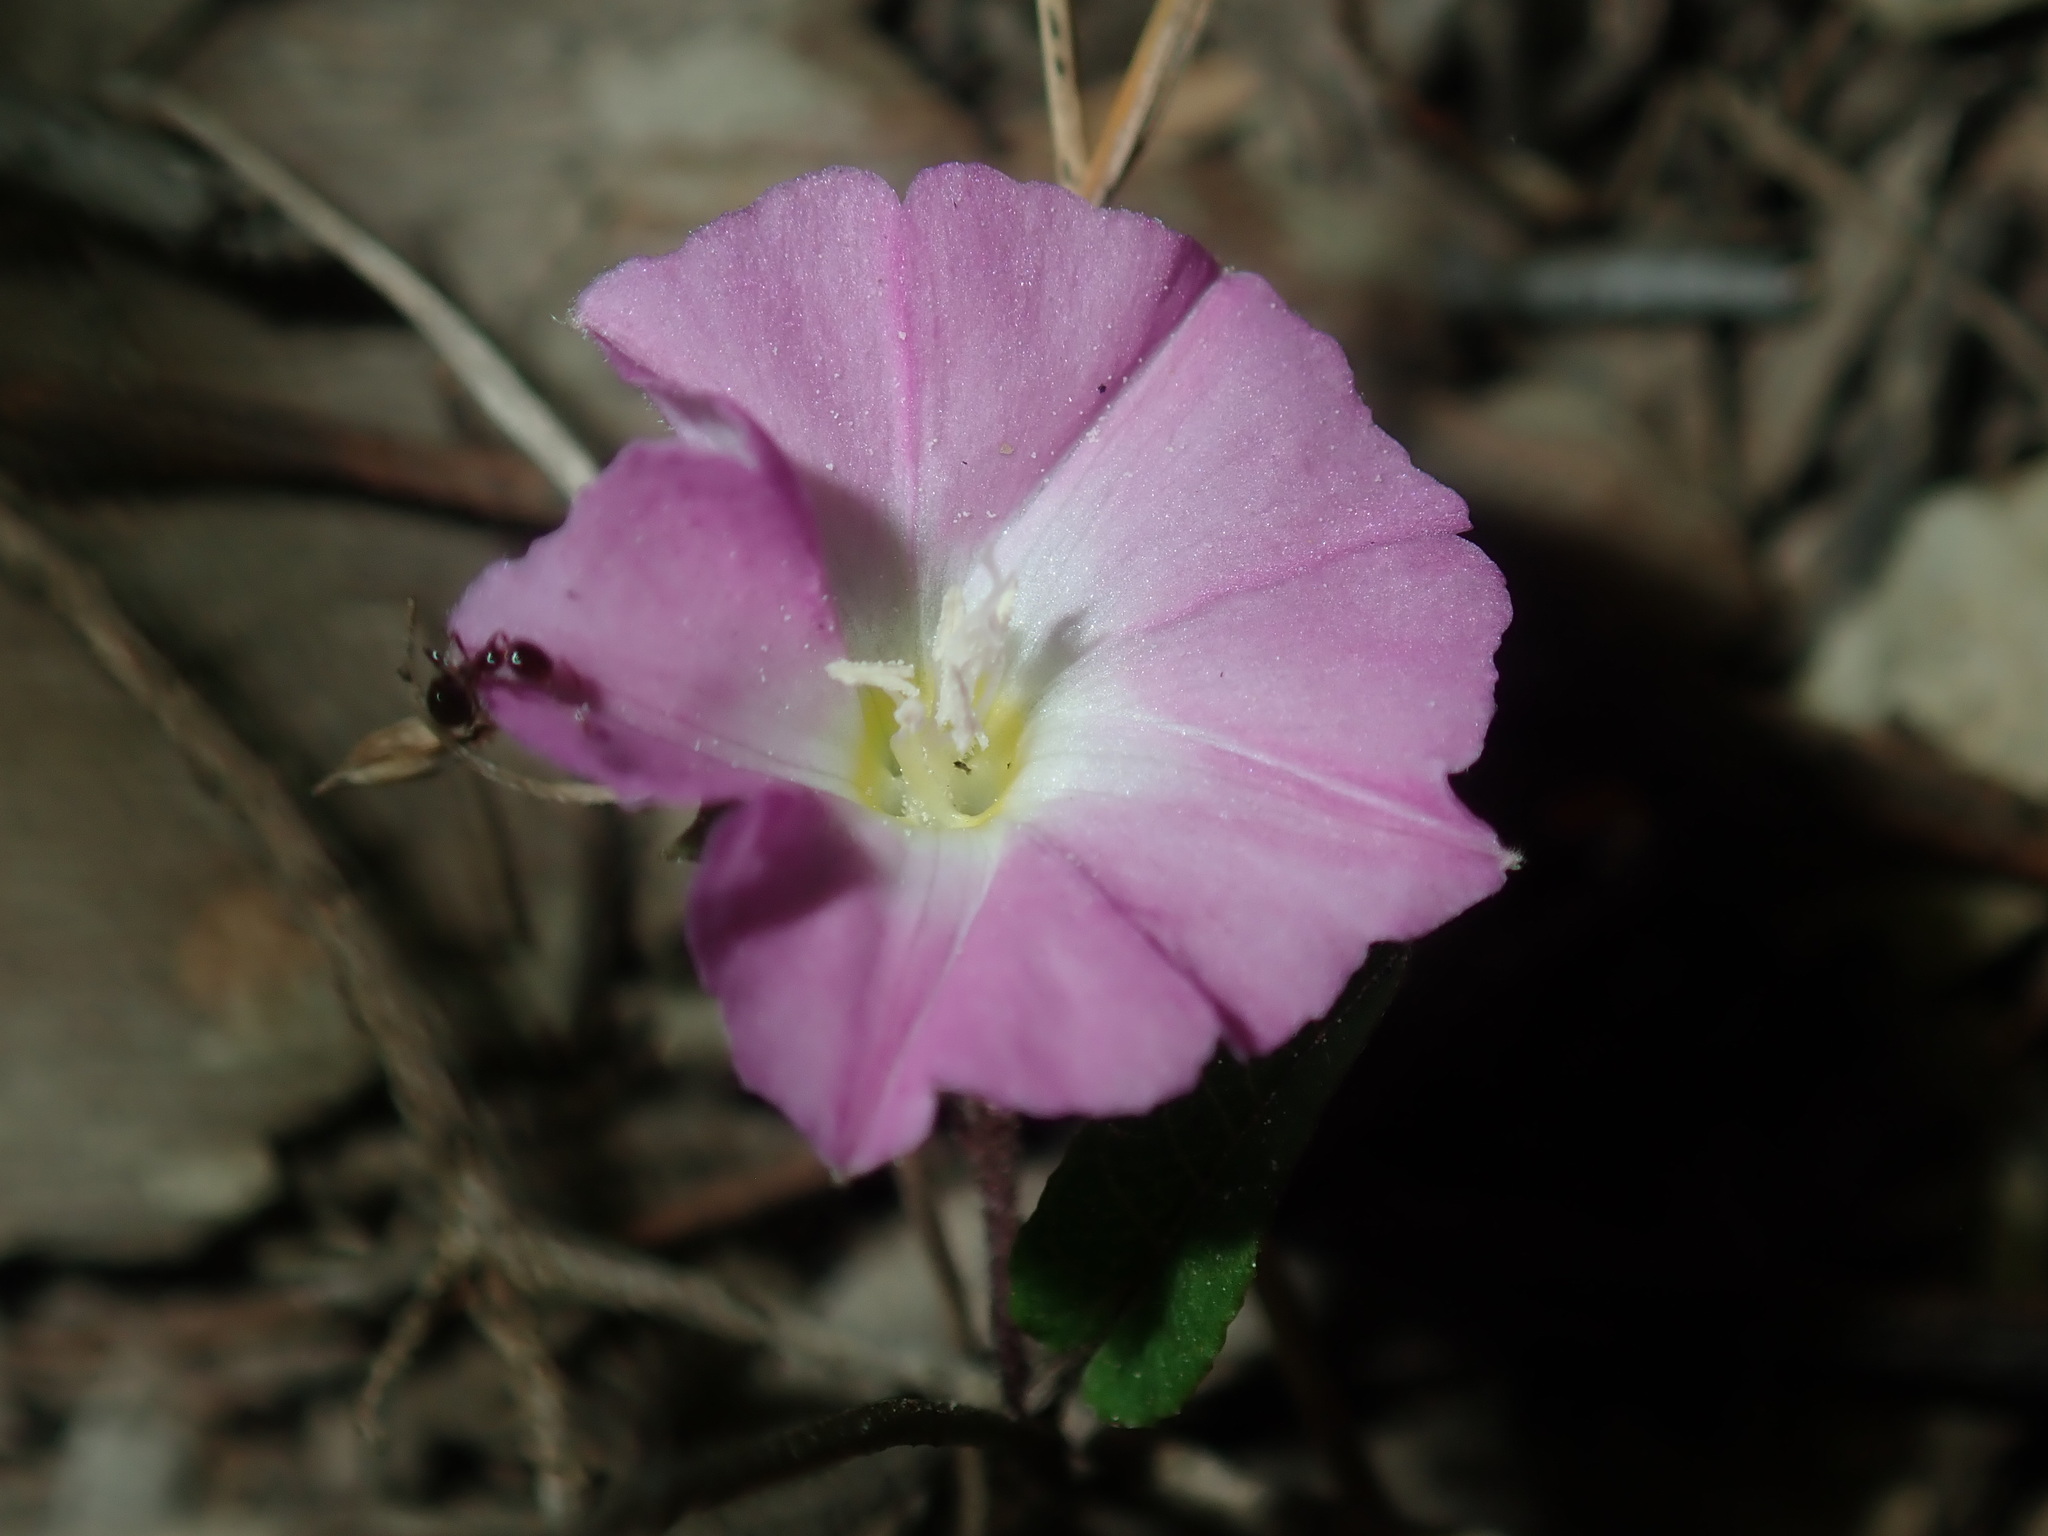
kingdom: Plantae
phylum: Tracheophyta
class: Magnoliopsida
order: Solanales
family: Convolvulaceae
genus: Polymeria
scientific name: Polymeria calycina
